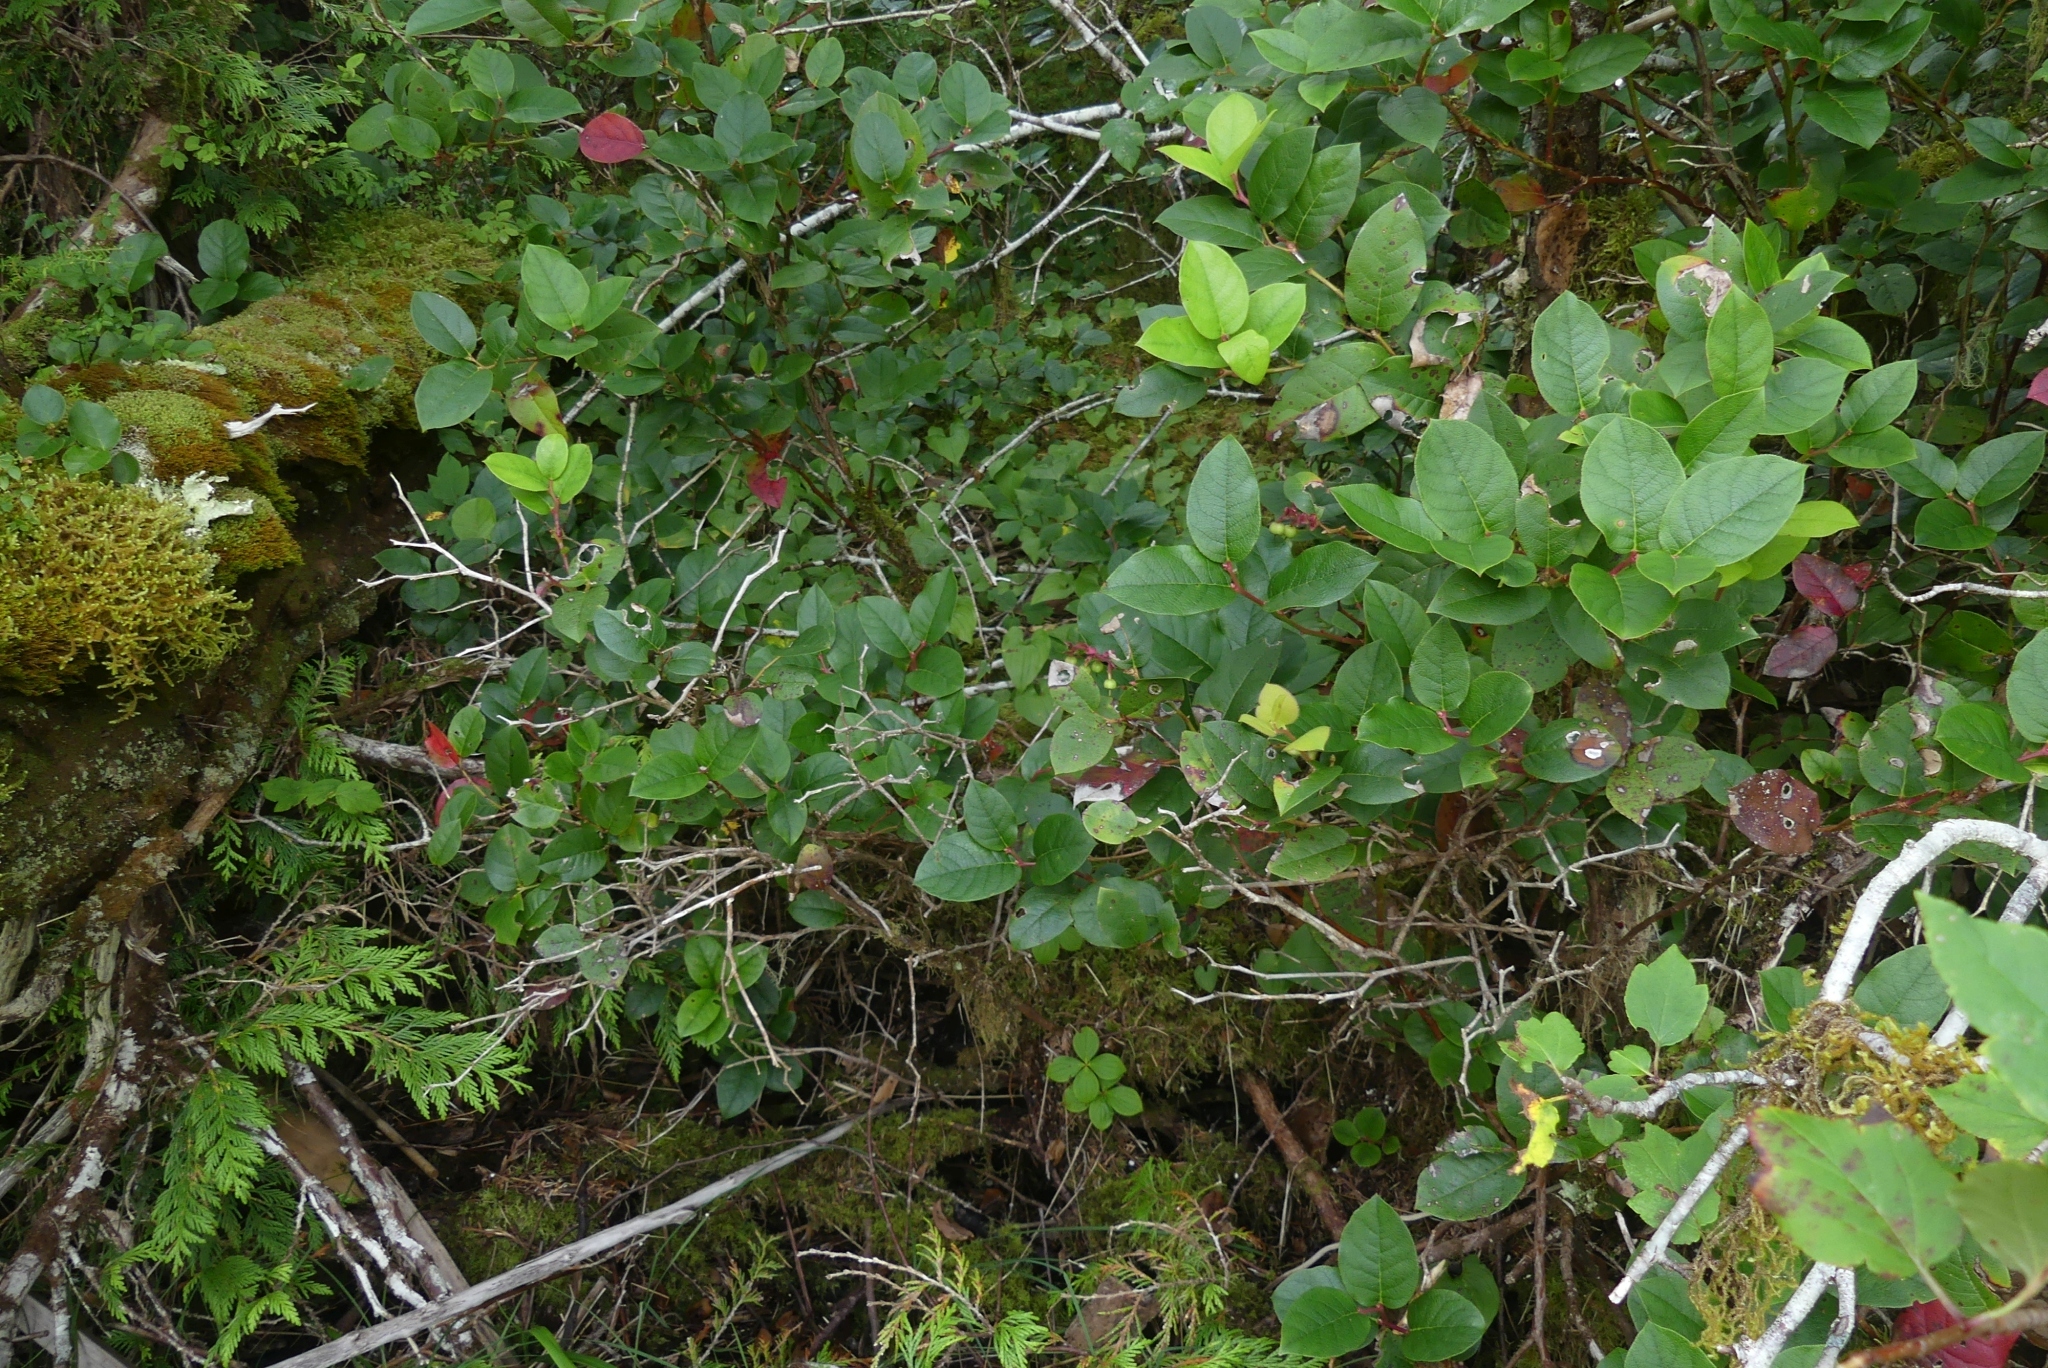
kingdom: Plantae
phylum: Tracheophyta
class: Magnoliopsida
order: Ericales
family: Ericaceae
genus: Gaultheria
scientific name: Gaultheria shallon
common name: Shallon
